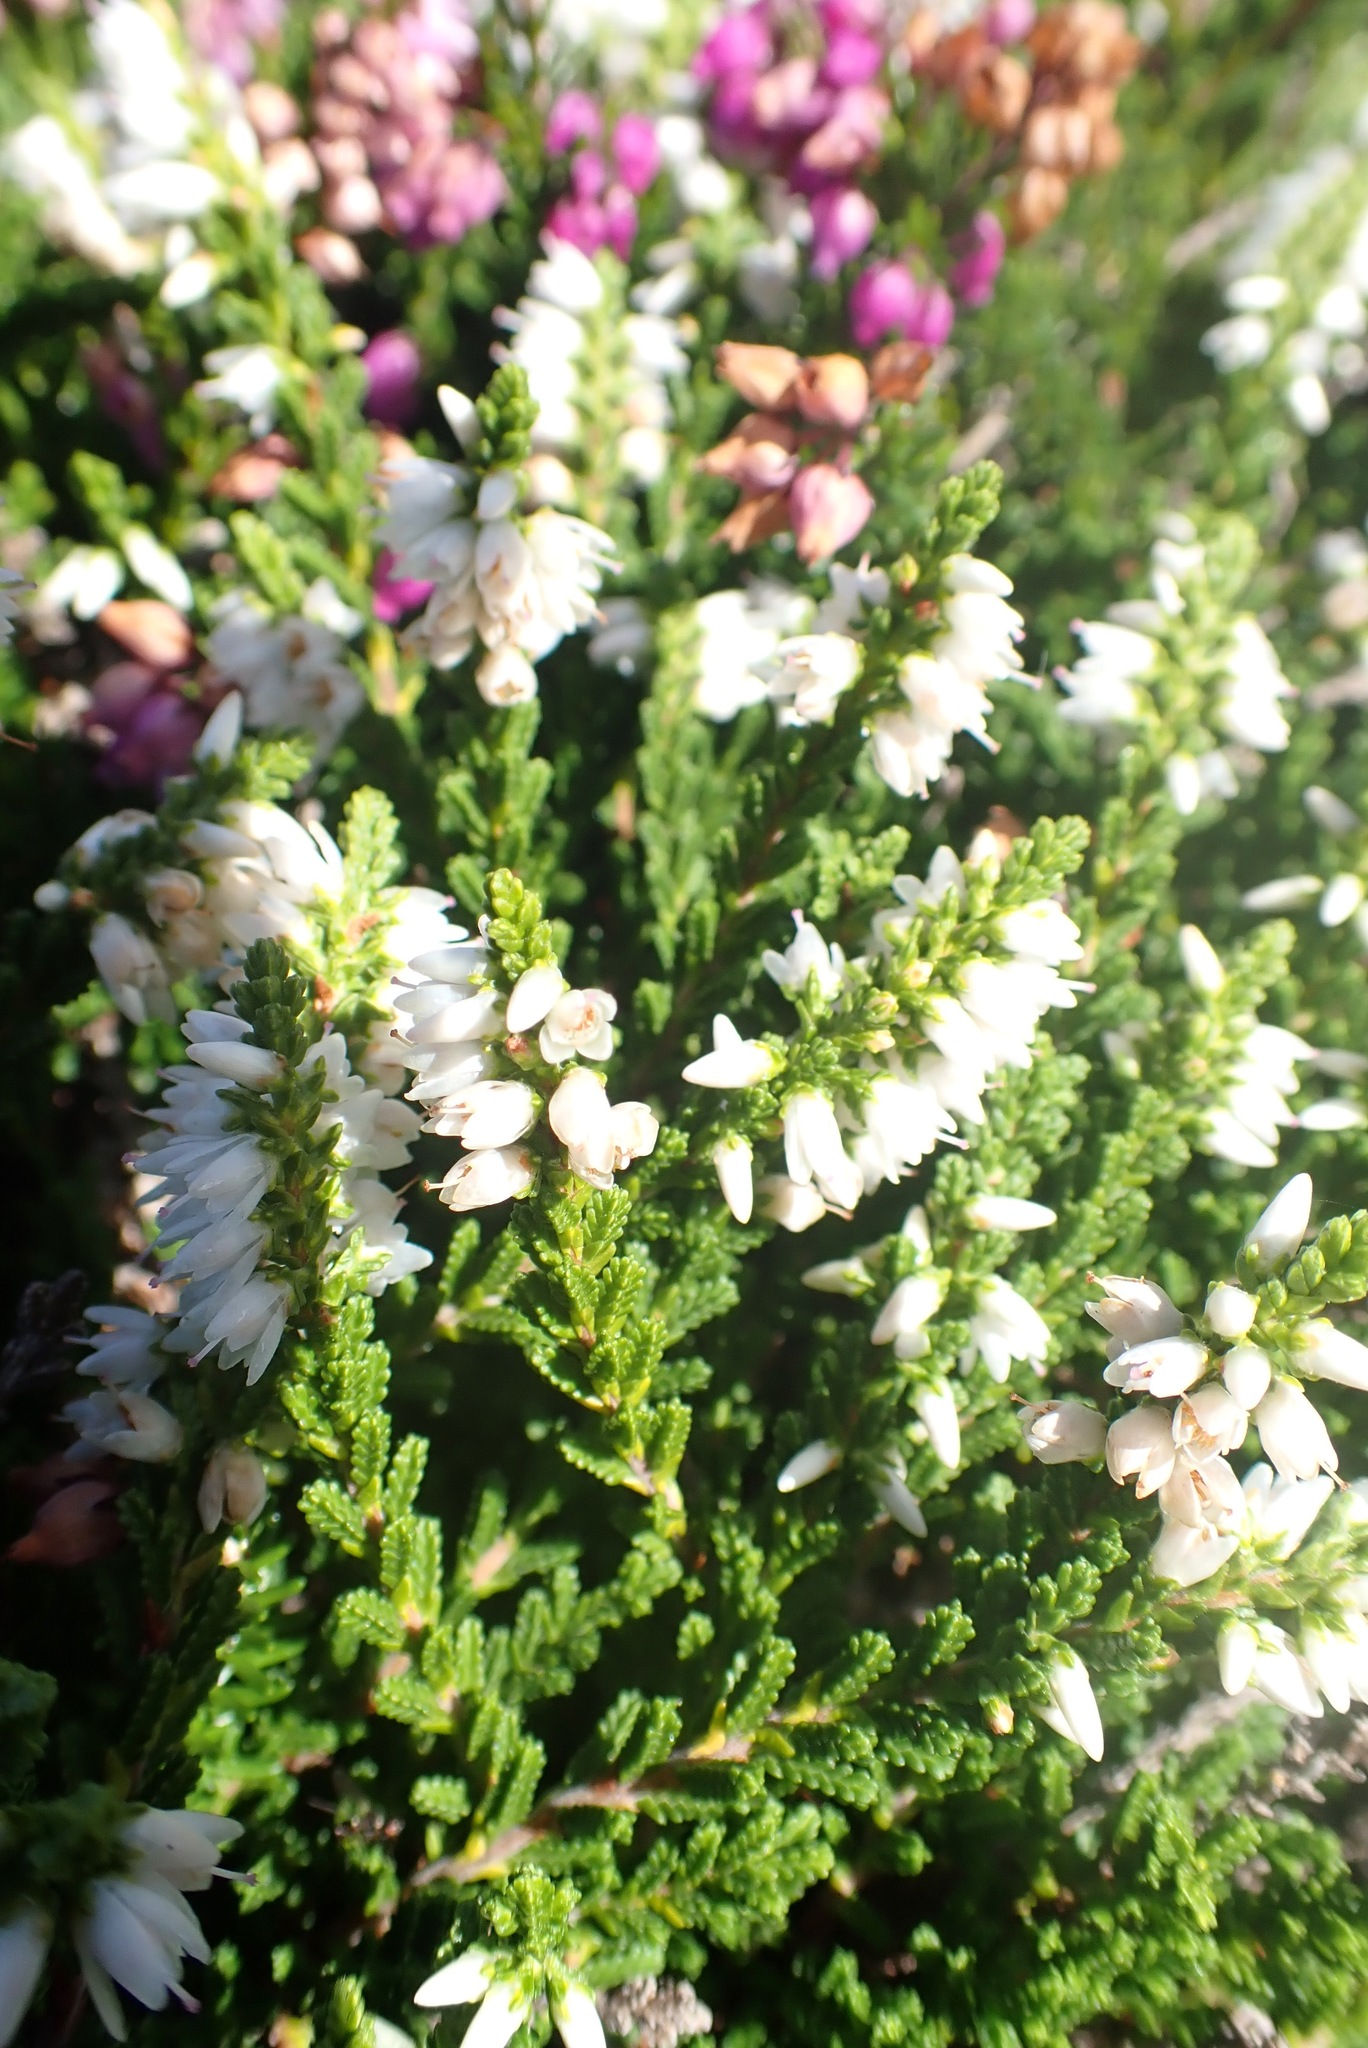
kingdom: Plantae
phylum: Tracheophyta
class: Magnoliopsida
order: Ericales
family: Ericaceae
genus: Calluna
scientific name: Calluna vulgaris
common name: Heather
